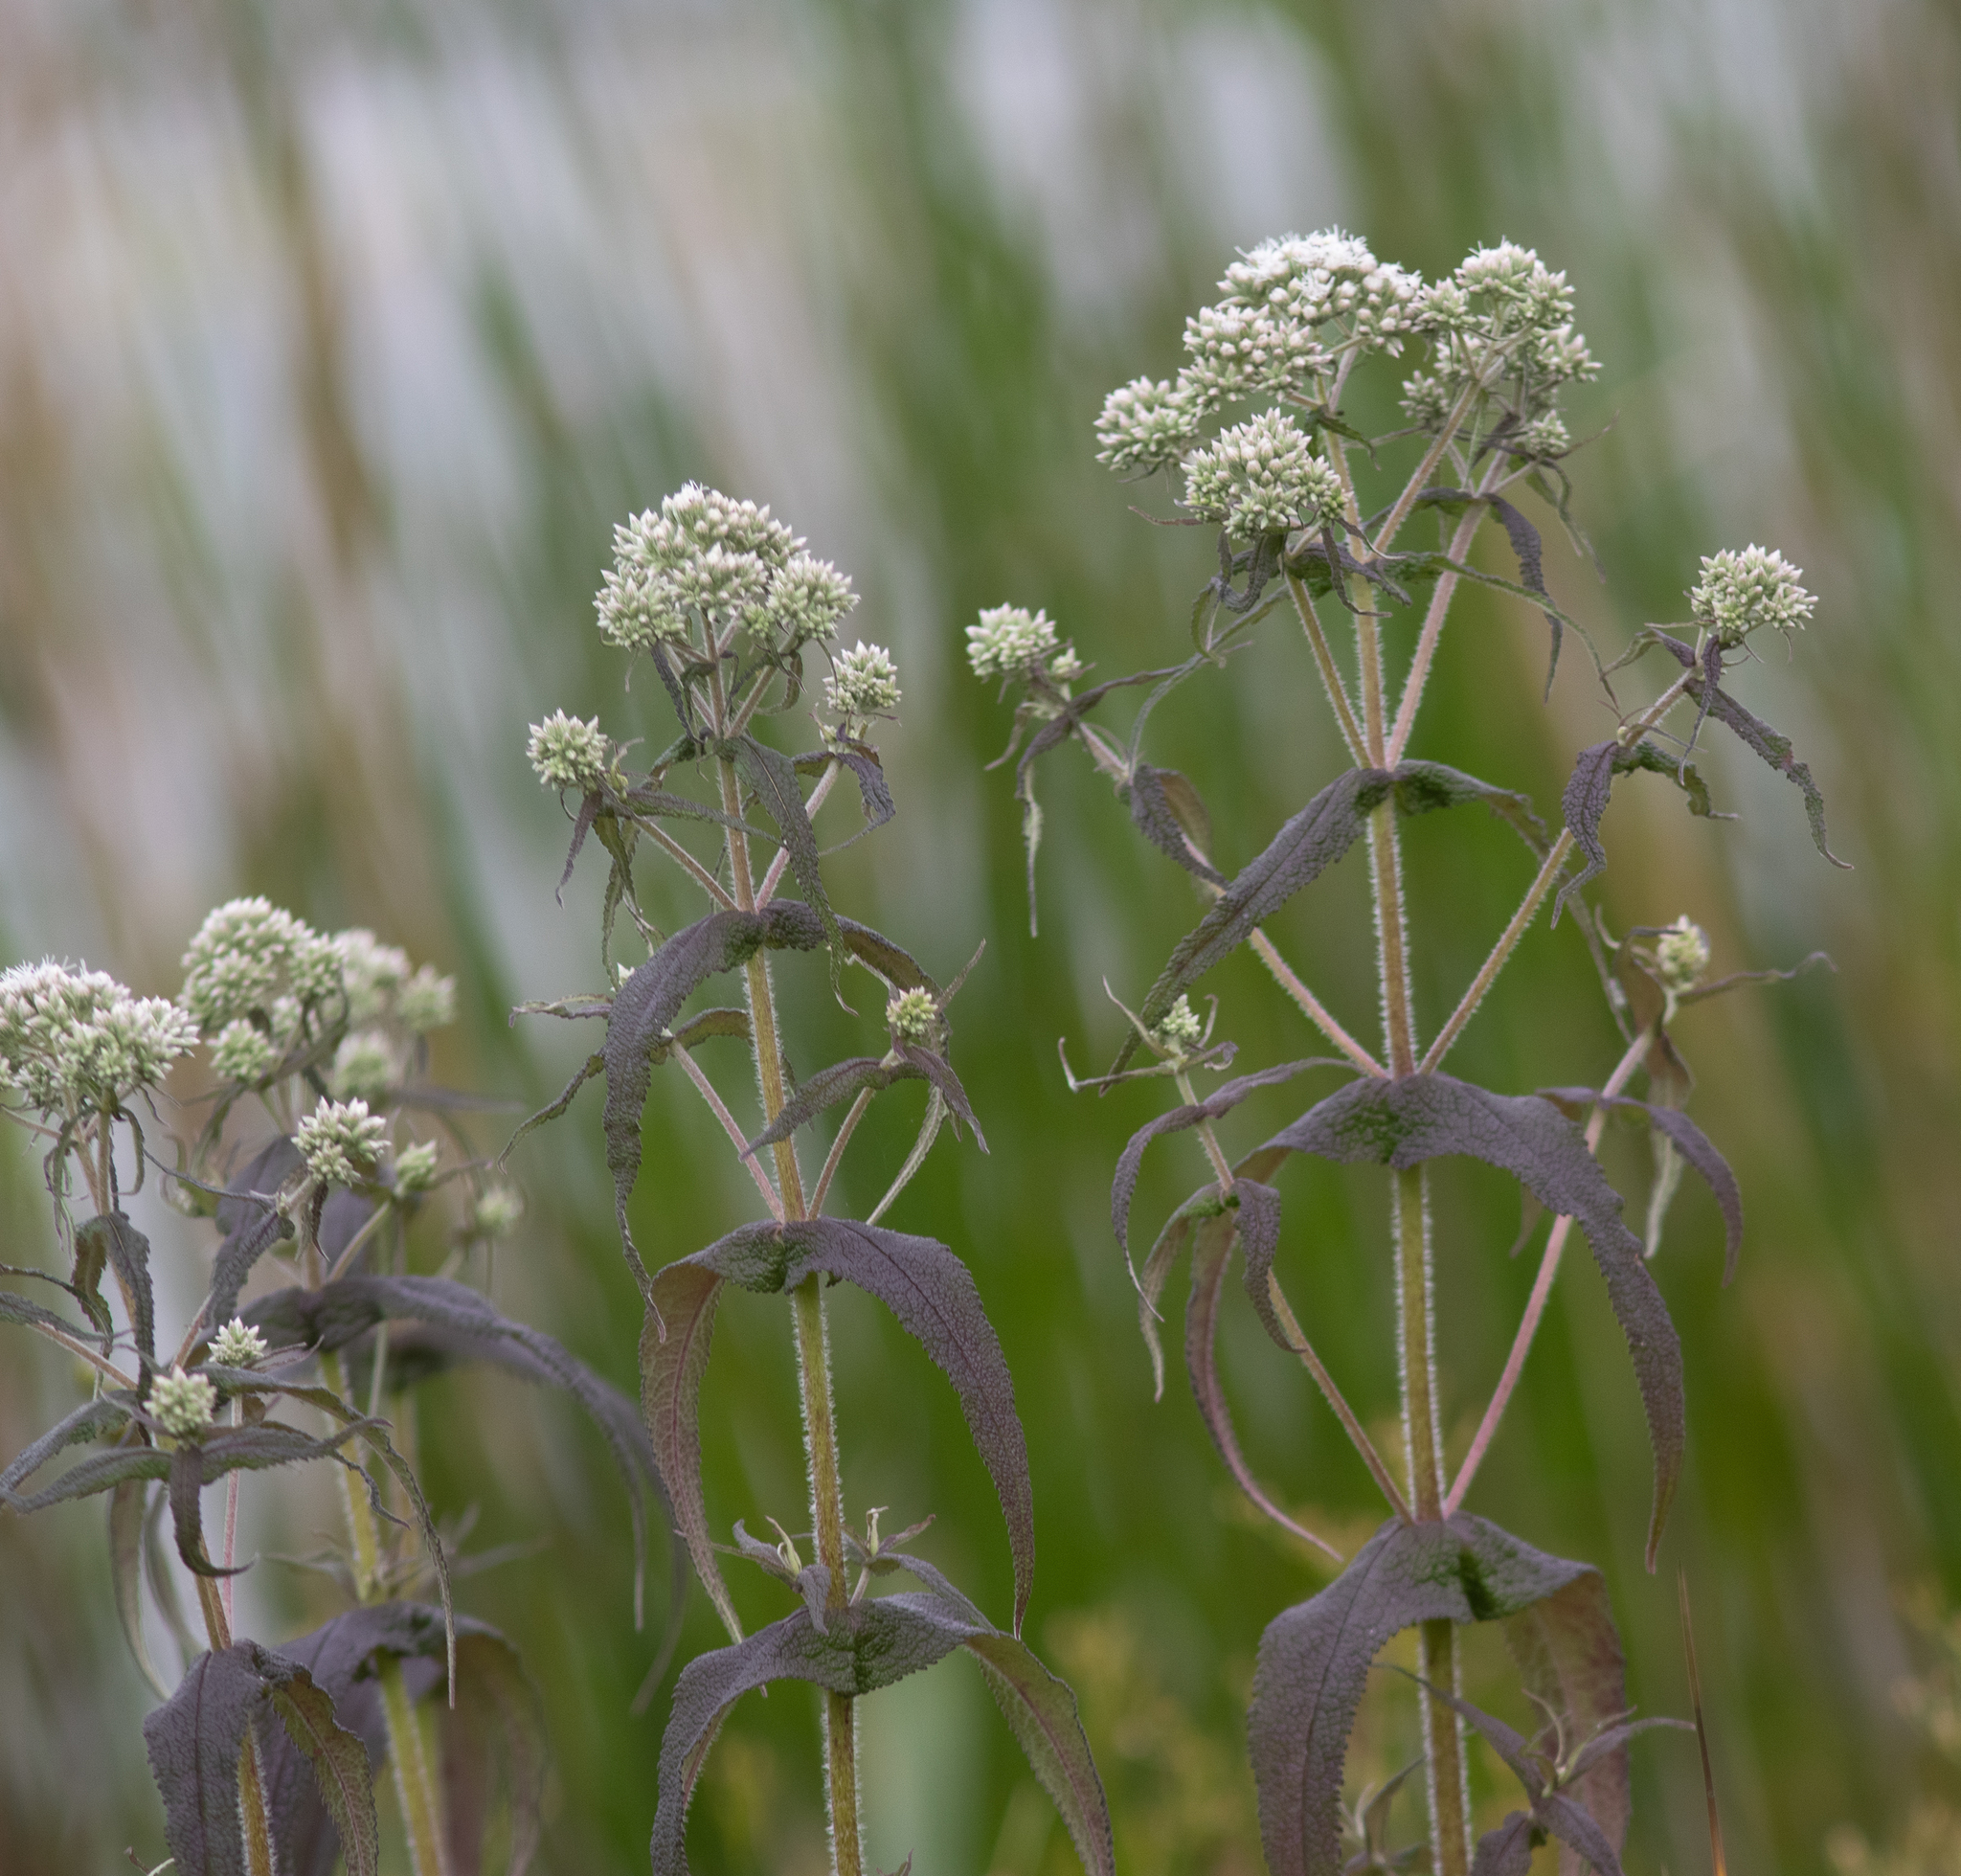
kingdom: Plantae
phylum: Tracheophyta
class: Magnoliopsida
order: Asterales
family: Asteraceae
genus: Eupatorium
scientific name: Eupatorium perfoliatum
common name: Boneset
